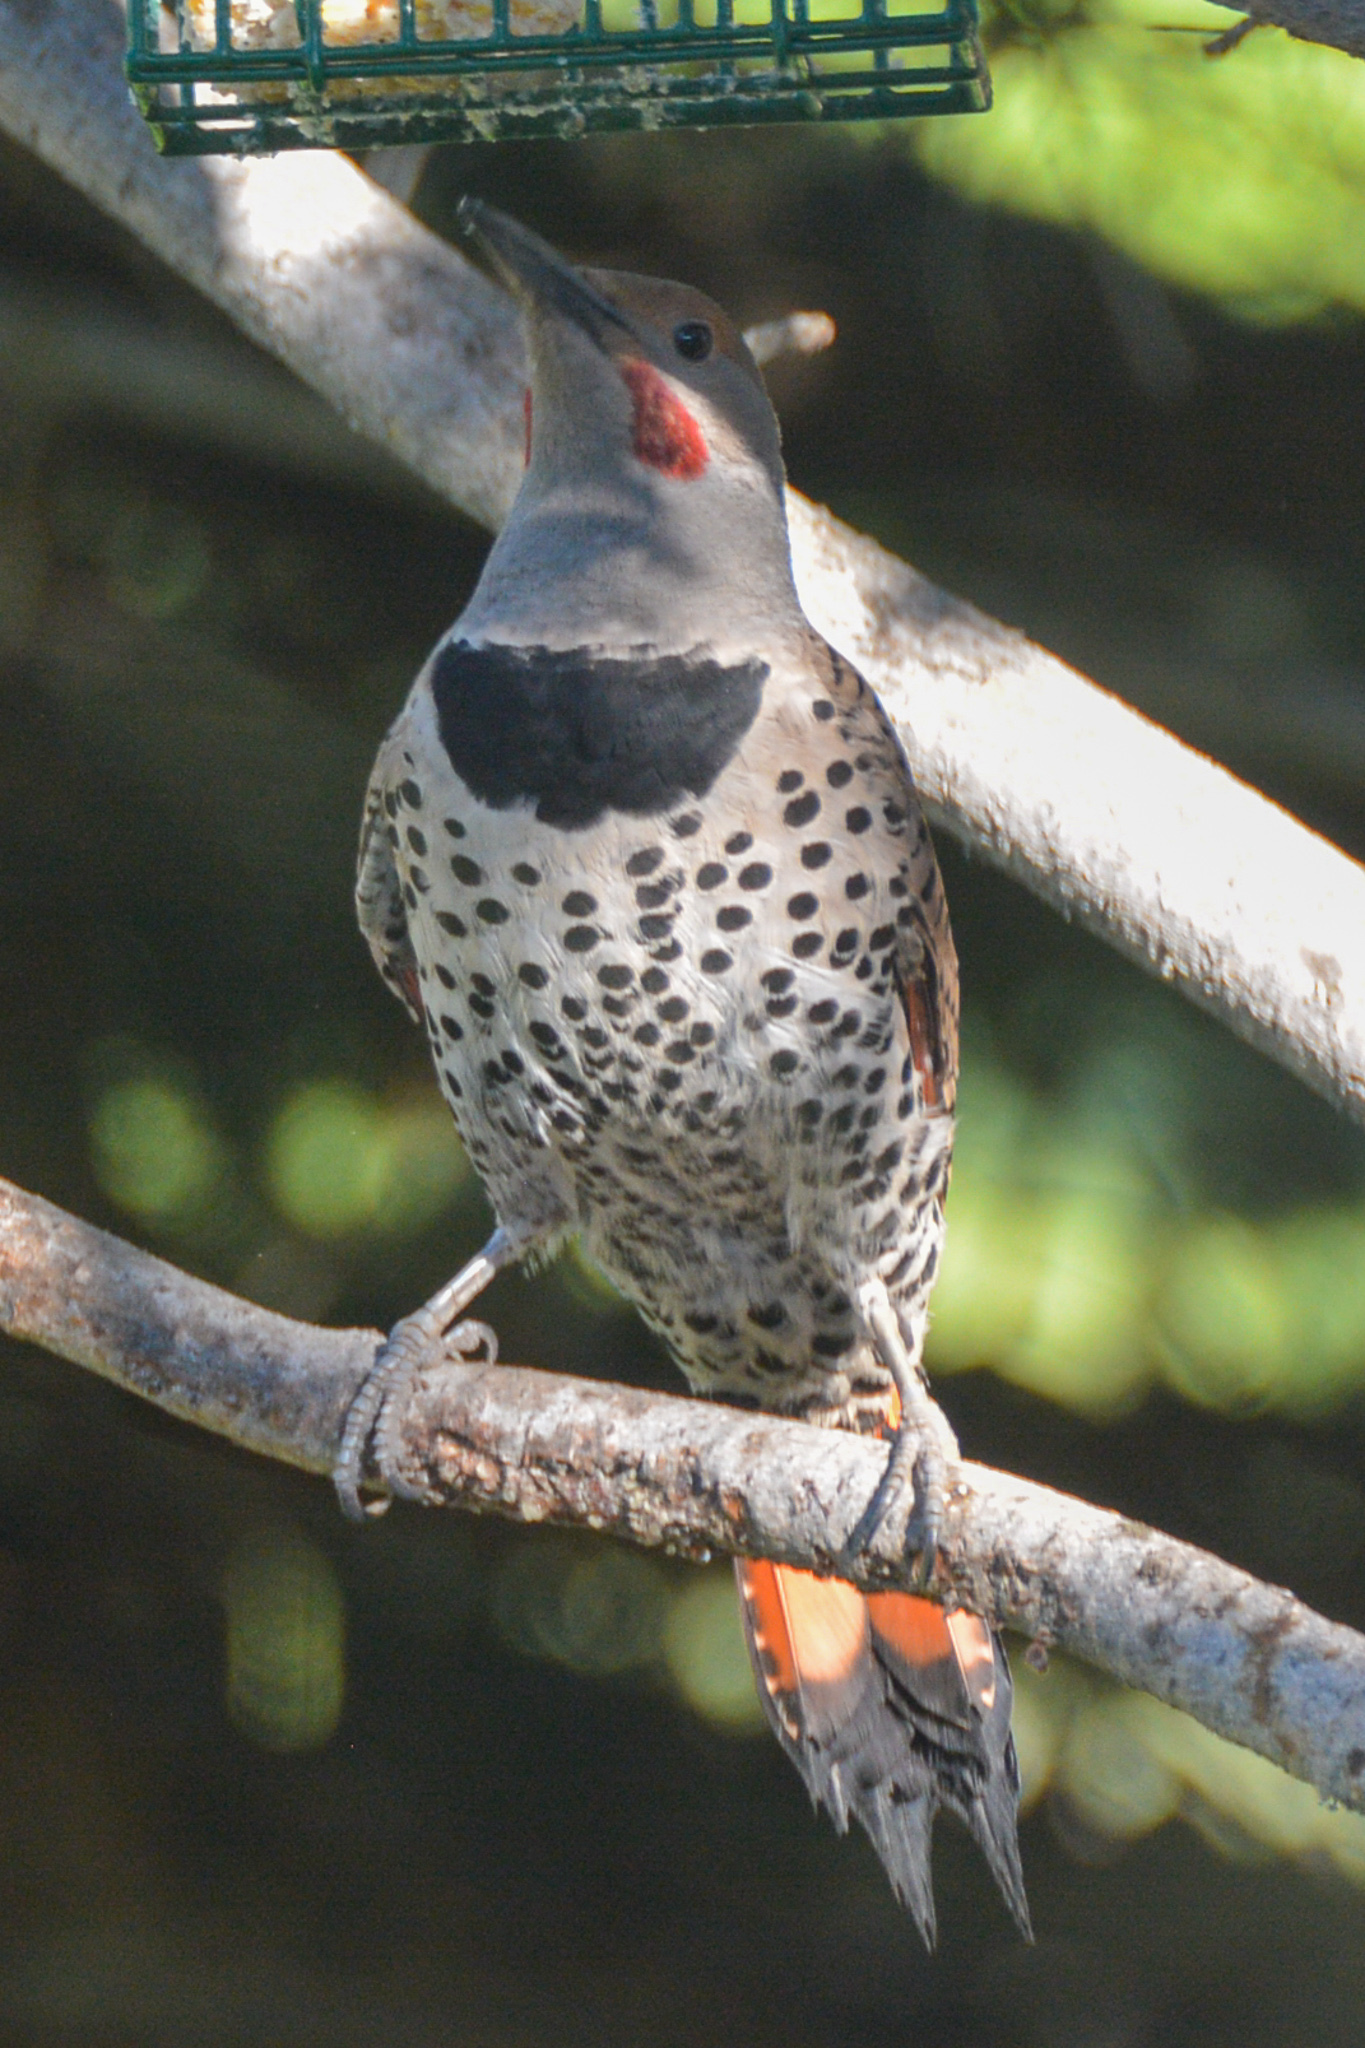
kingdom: Animalia
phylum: Chordata
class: Aves
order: Piciformes
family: Picidae
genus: Colaptes
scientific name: Colaptes auratus
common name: Northern flicker
